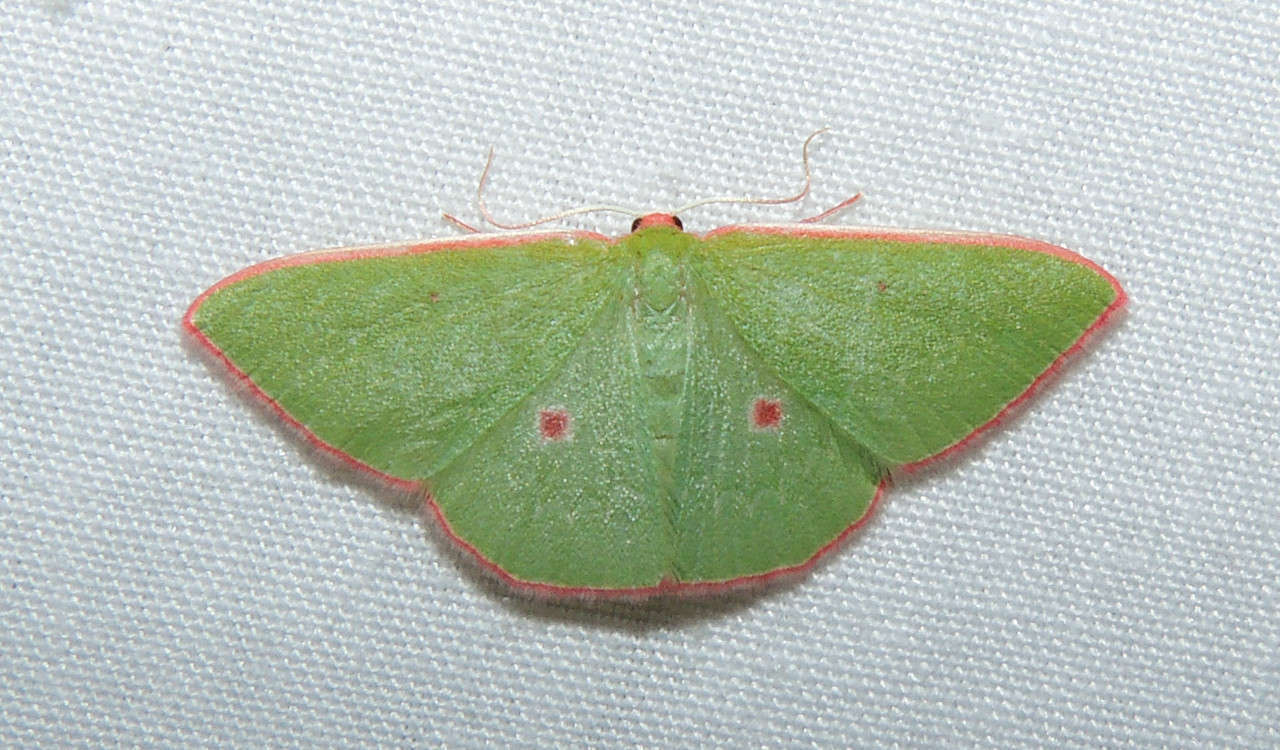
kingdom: Animalia
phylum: Arthropoda
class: Insecta
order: Lepidoptera
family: Geometridae
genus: Chlorocoma
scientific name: Chlorocoma cadmaria
